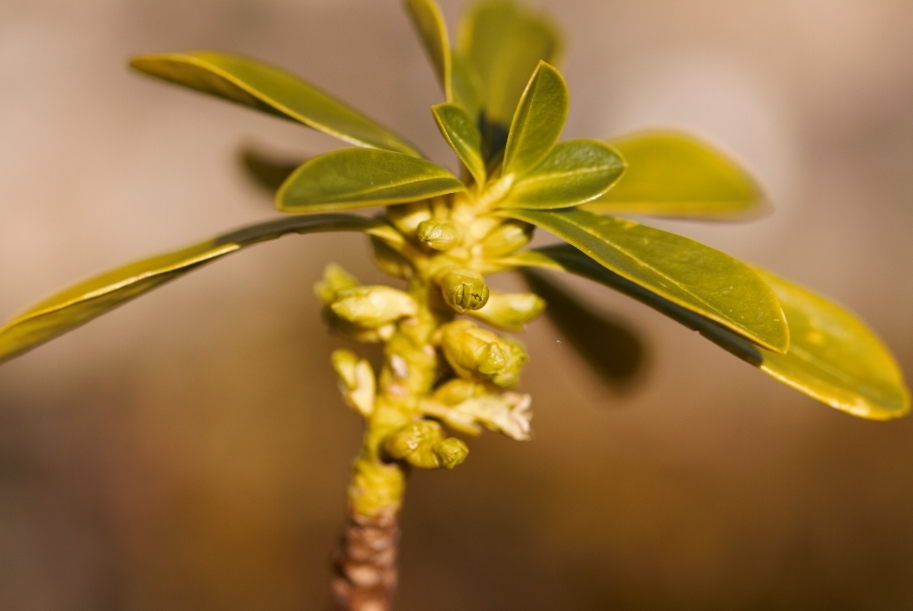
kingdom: Plantae
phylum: Tracheophyta
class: Magnoliopsida
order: Malvales
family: Thymelaeaceae
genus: Daphne
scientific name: Daphne laureola
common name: Spurge-laurel
